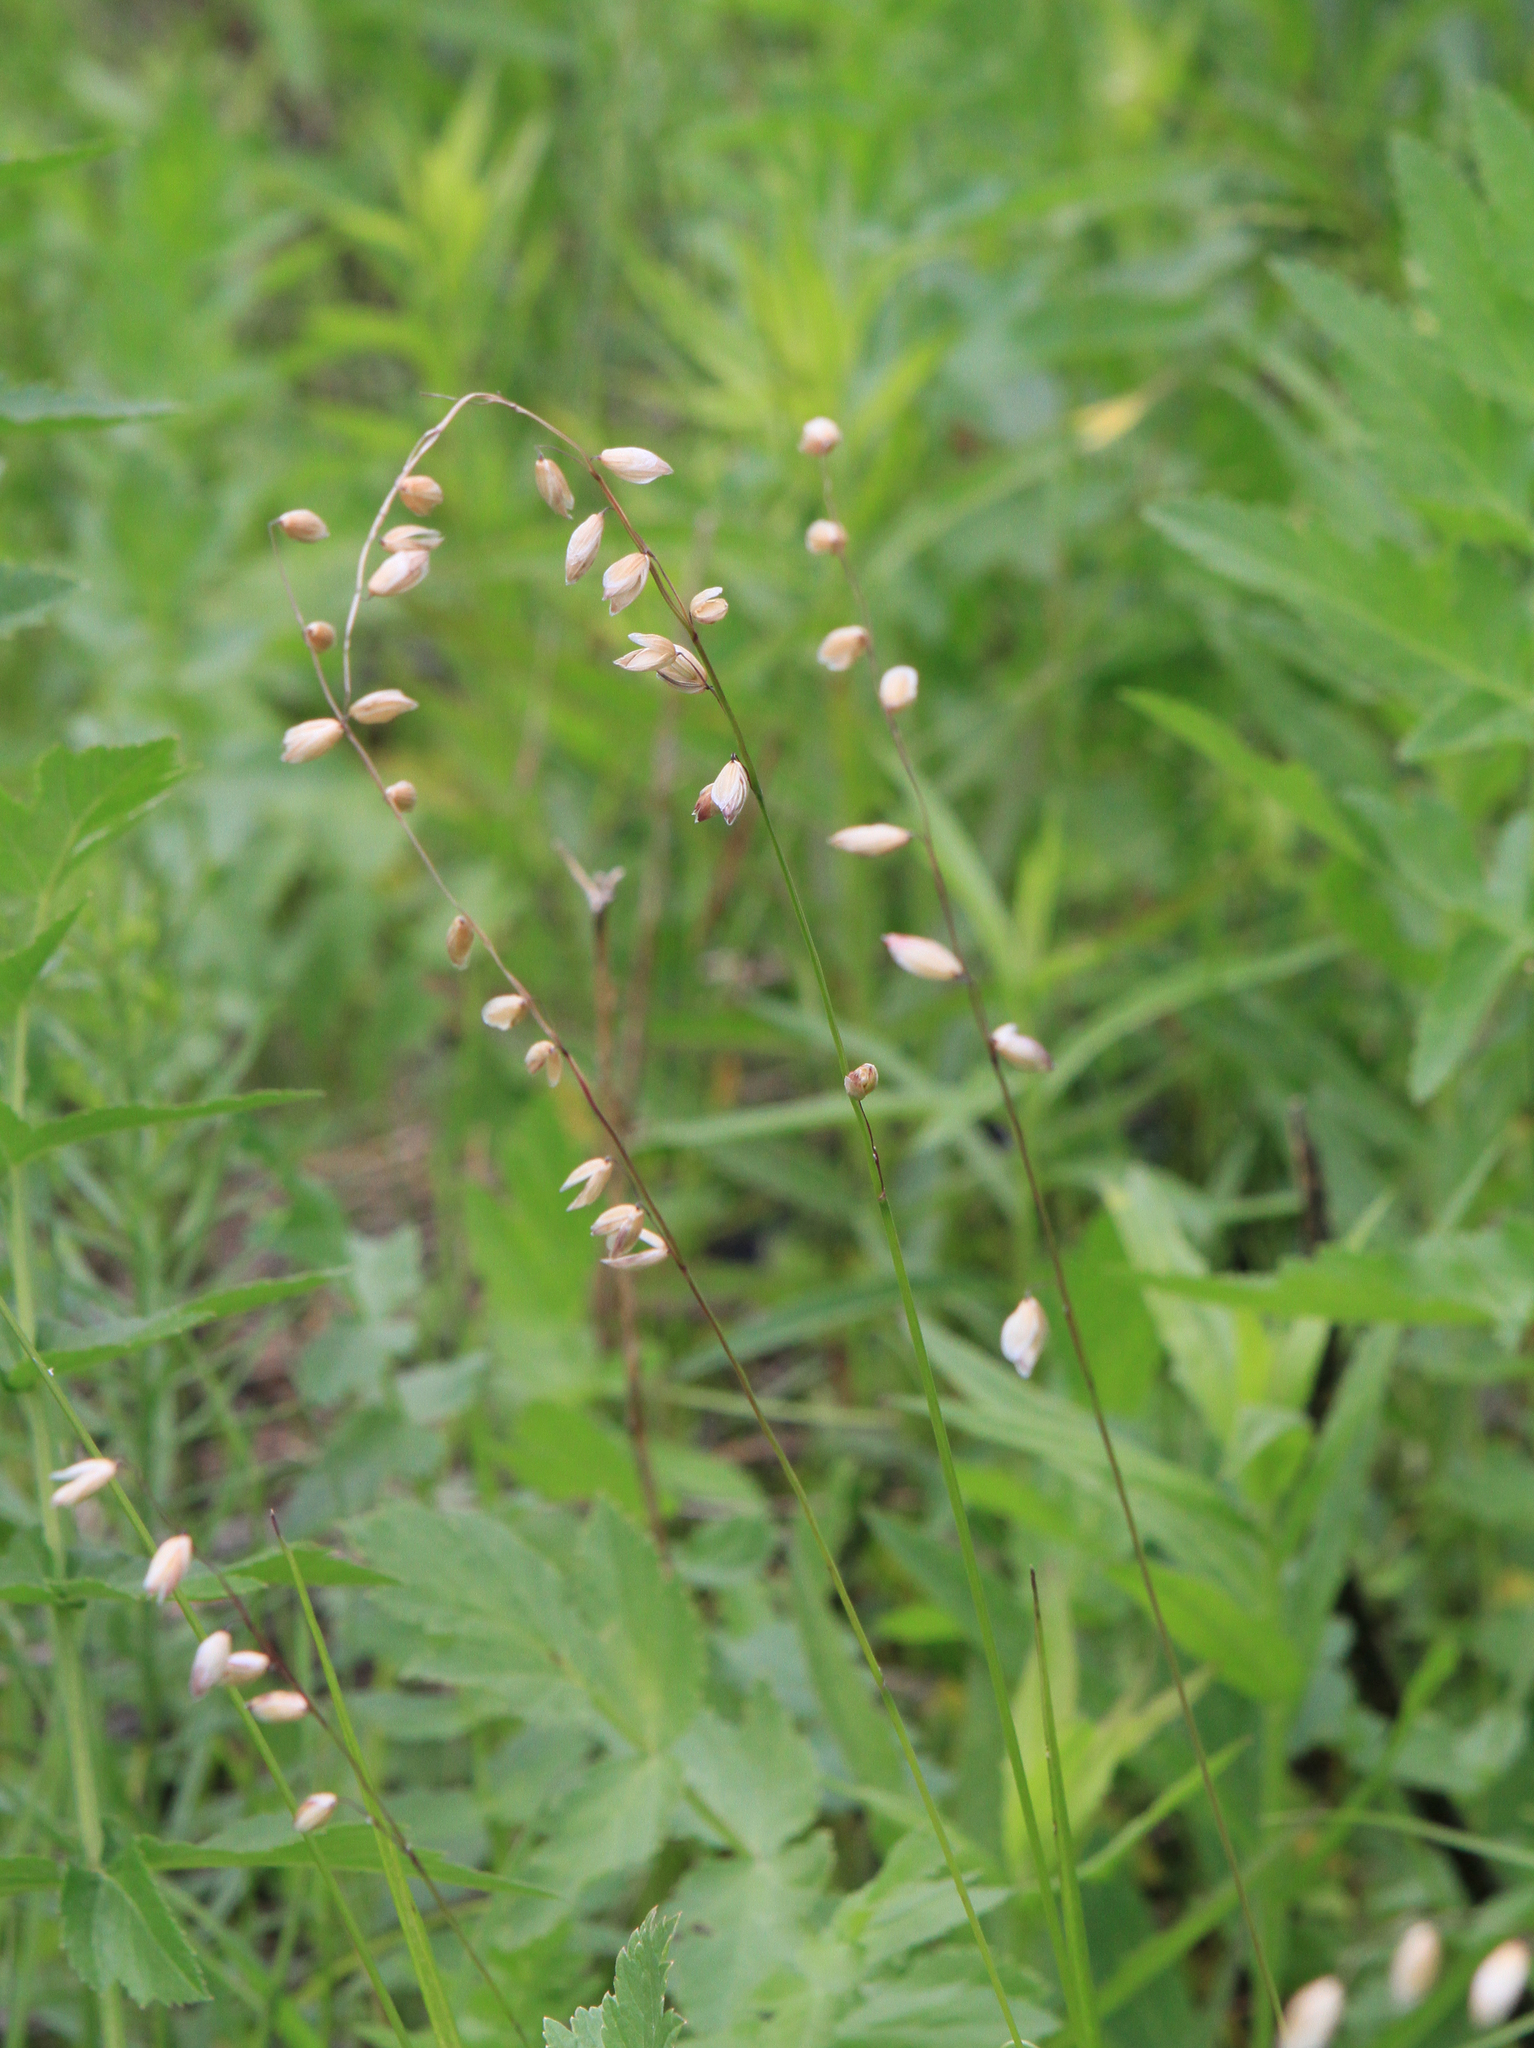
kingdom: Plantae
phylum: Tracheophyta
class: Liliopsida
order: Poales
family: Poaceae
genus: Melica
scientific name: Melica nutans
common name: Mountain melick
